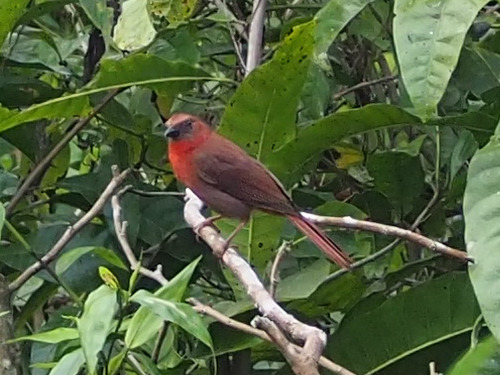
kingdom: Animalia
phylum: Chordata
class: Aves
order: Passeriformes
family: Cardinalidae
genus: Habia
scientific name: Habia fuscicauda
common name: Red-throated ant-tanager
